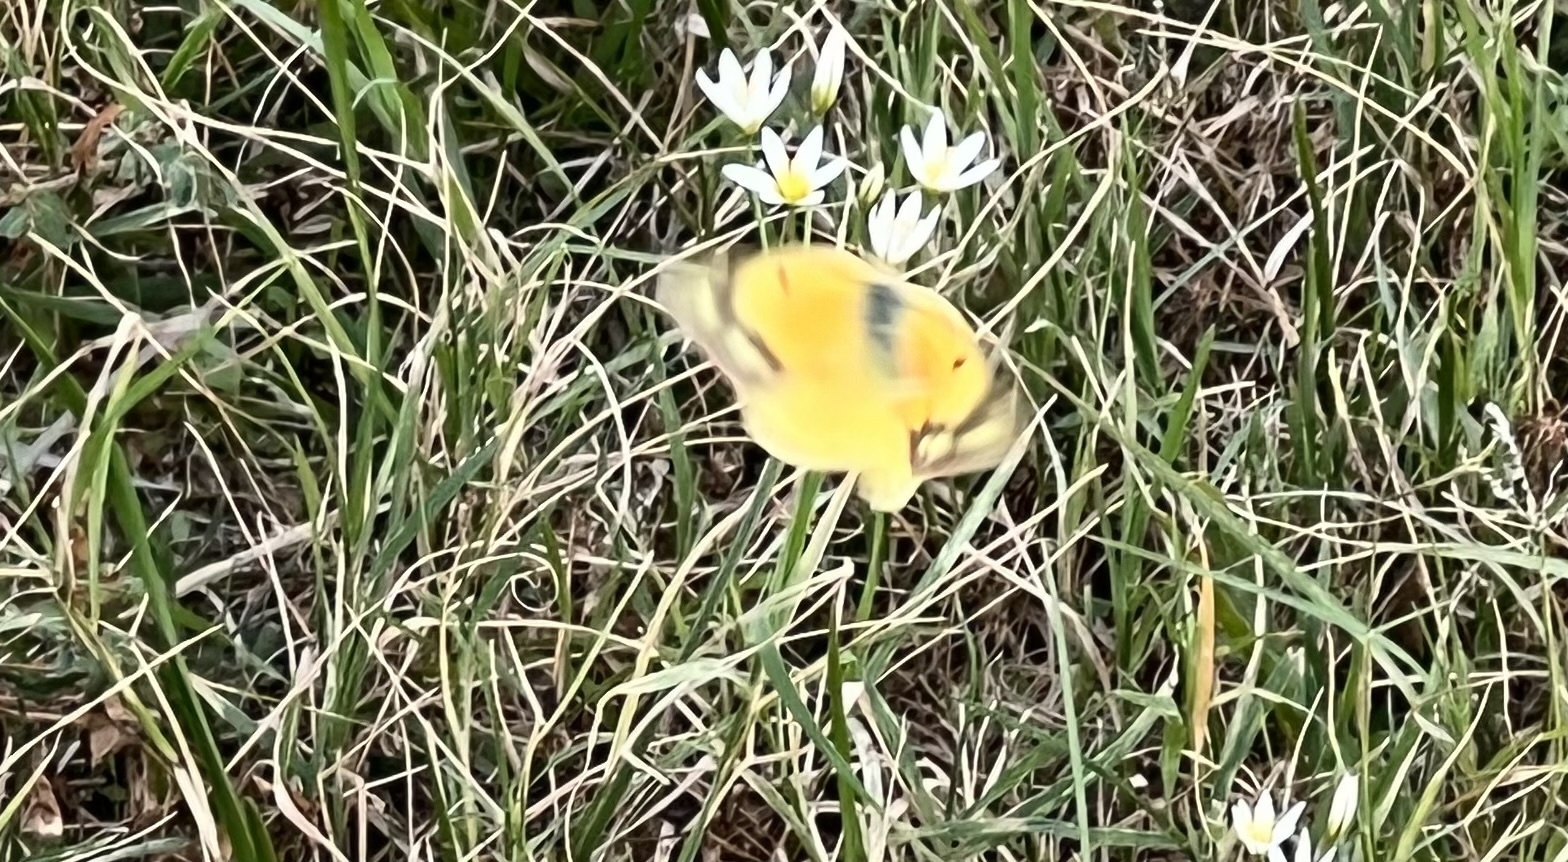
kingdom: Animalia
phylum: Arthropoda
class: Insecta
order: Lepidoptera
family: Pieridae
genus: Colias
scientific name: Colias eurytheme
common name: Alfalfa butterfly
